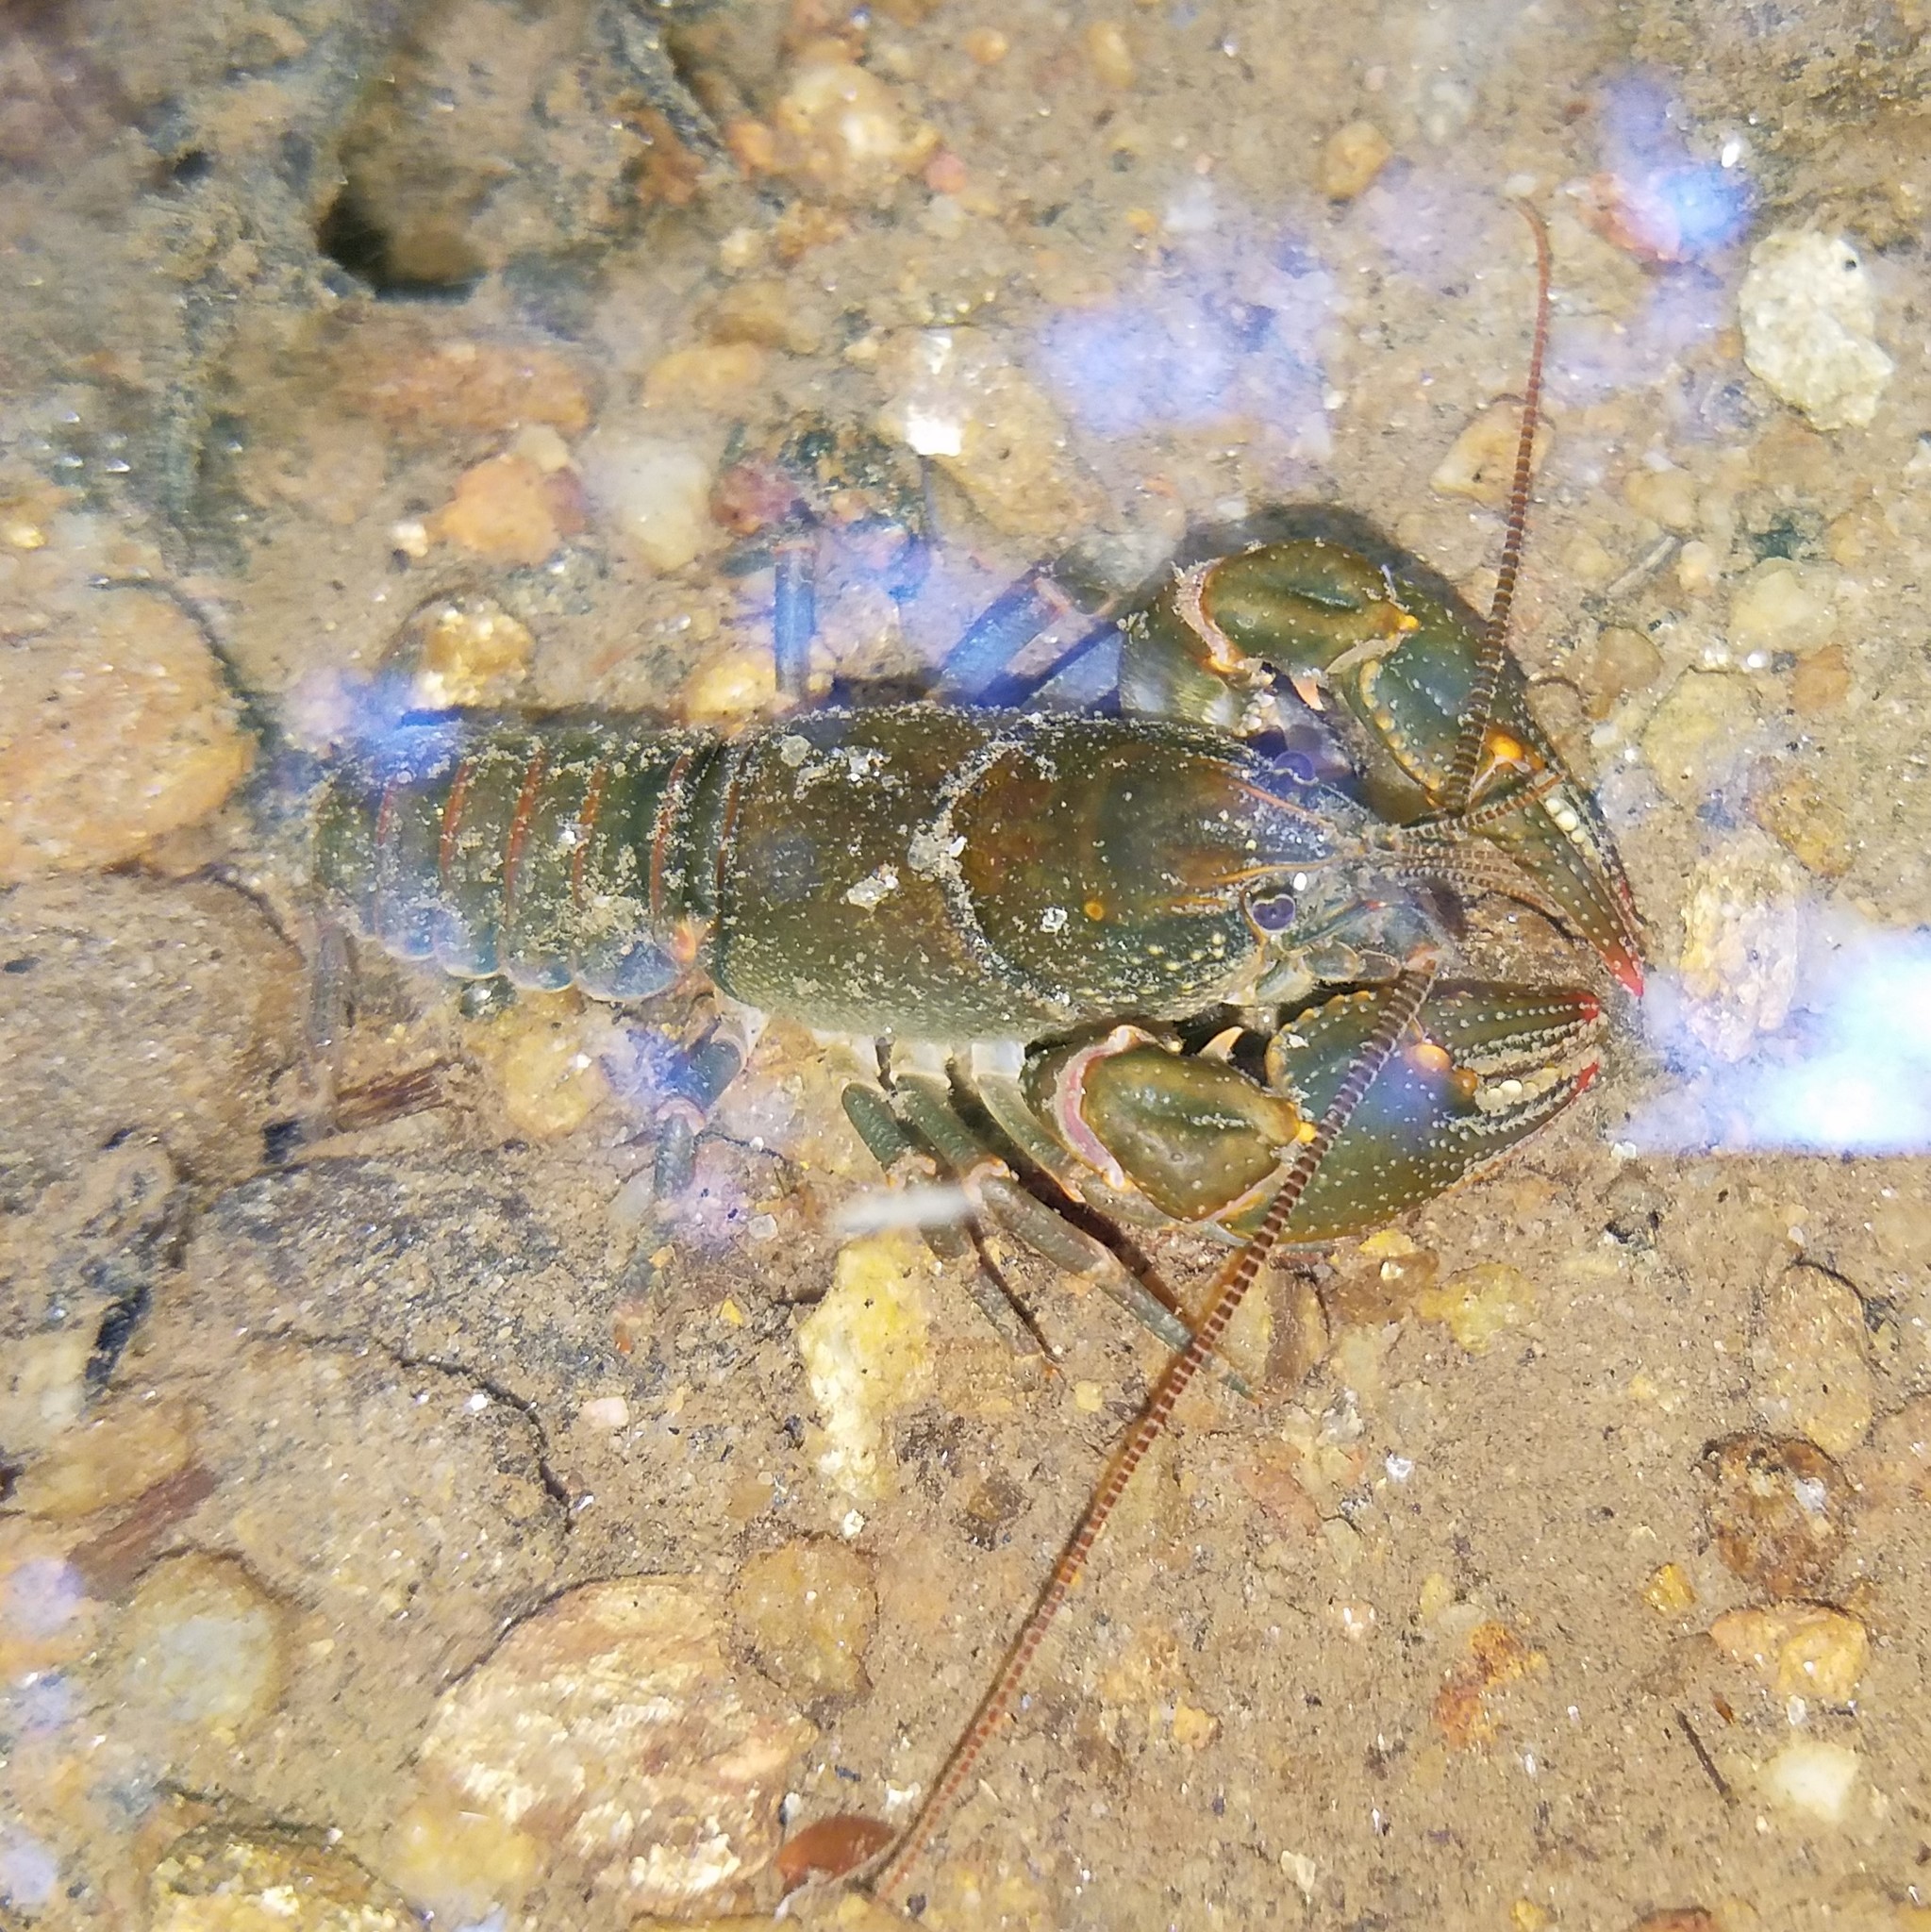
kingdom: Animalia
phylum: Arthropoda
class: Malacostraca
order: Decapoda
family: Cambaridae
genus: Cambarus
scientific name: Cambarus howardi
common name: Chattahoochee crayfish
